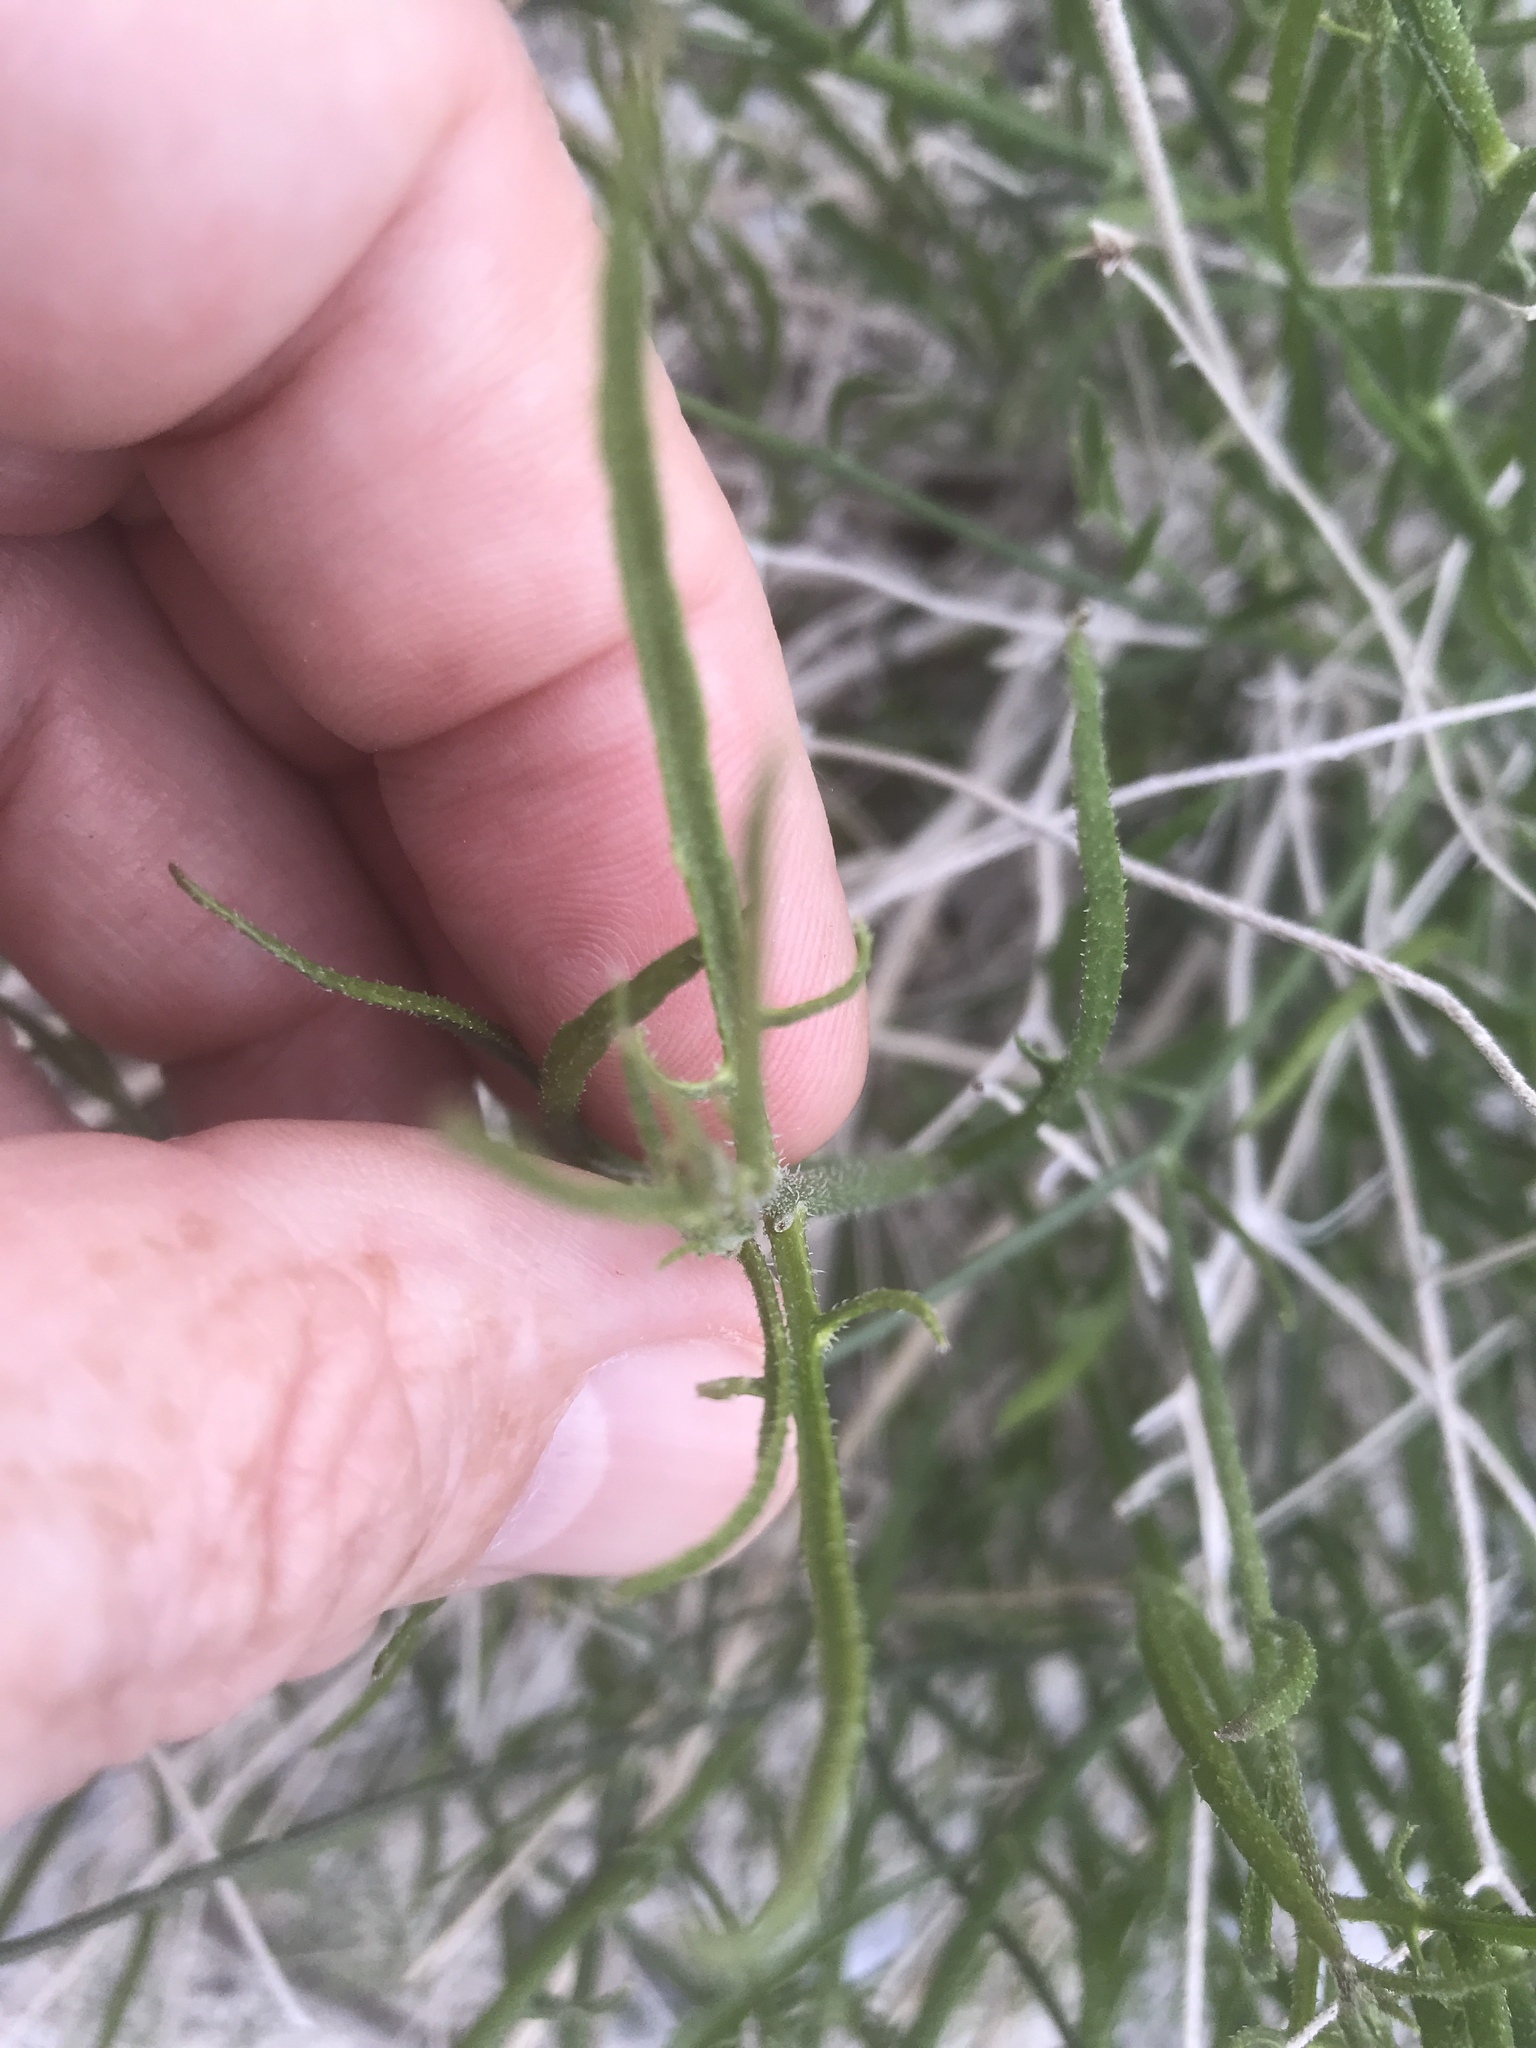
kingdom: Plantae
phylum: Tracheophyta
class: Magnoliopsida
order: Asterales
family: Asteraceae
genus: Bebbia
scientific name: Bebbia juncea
